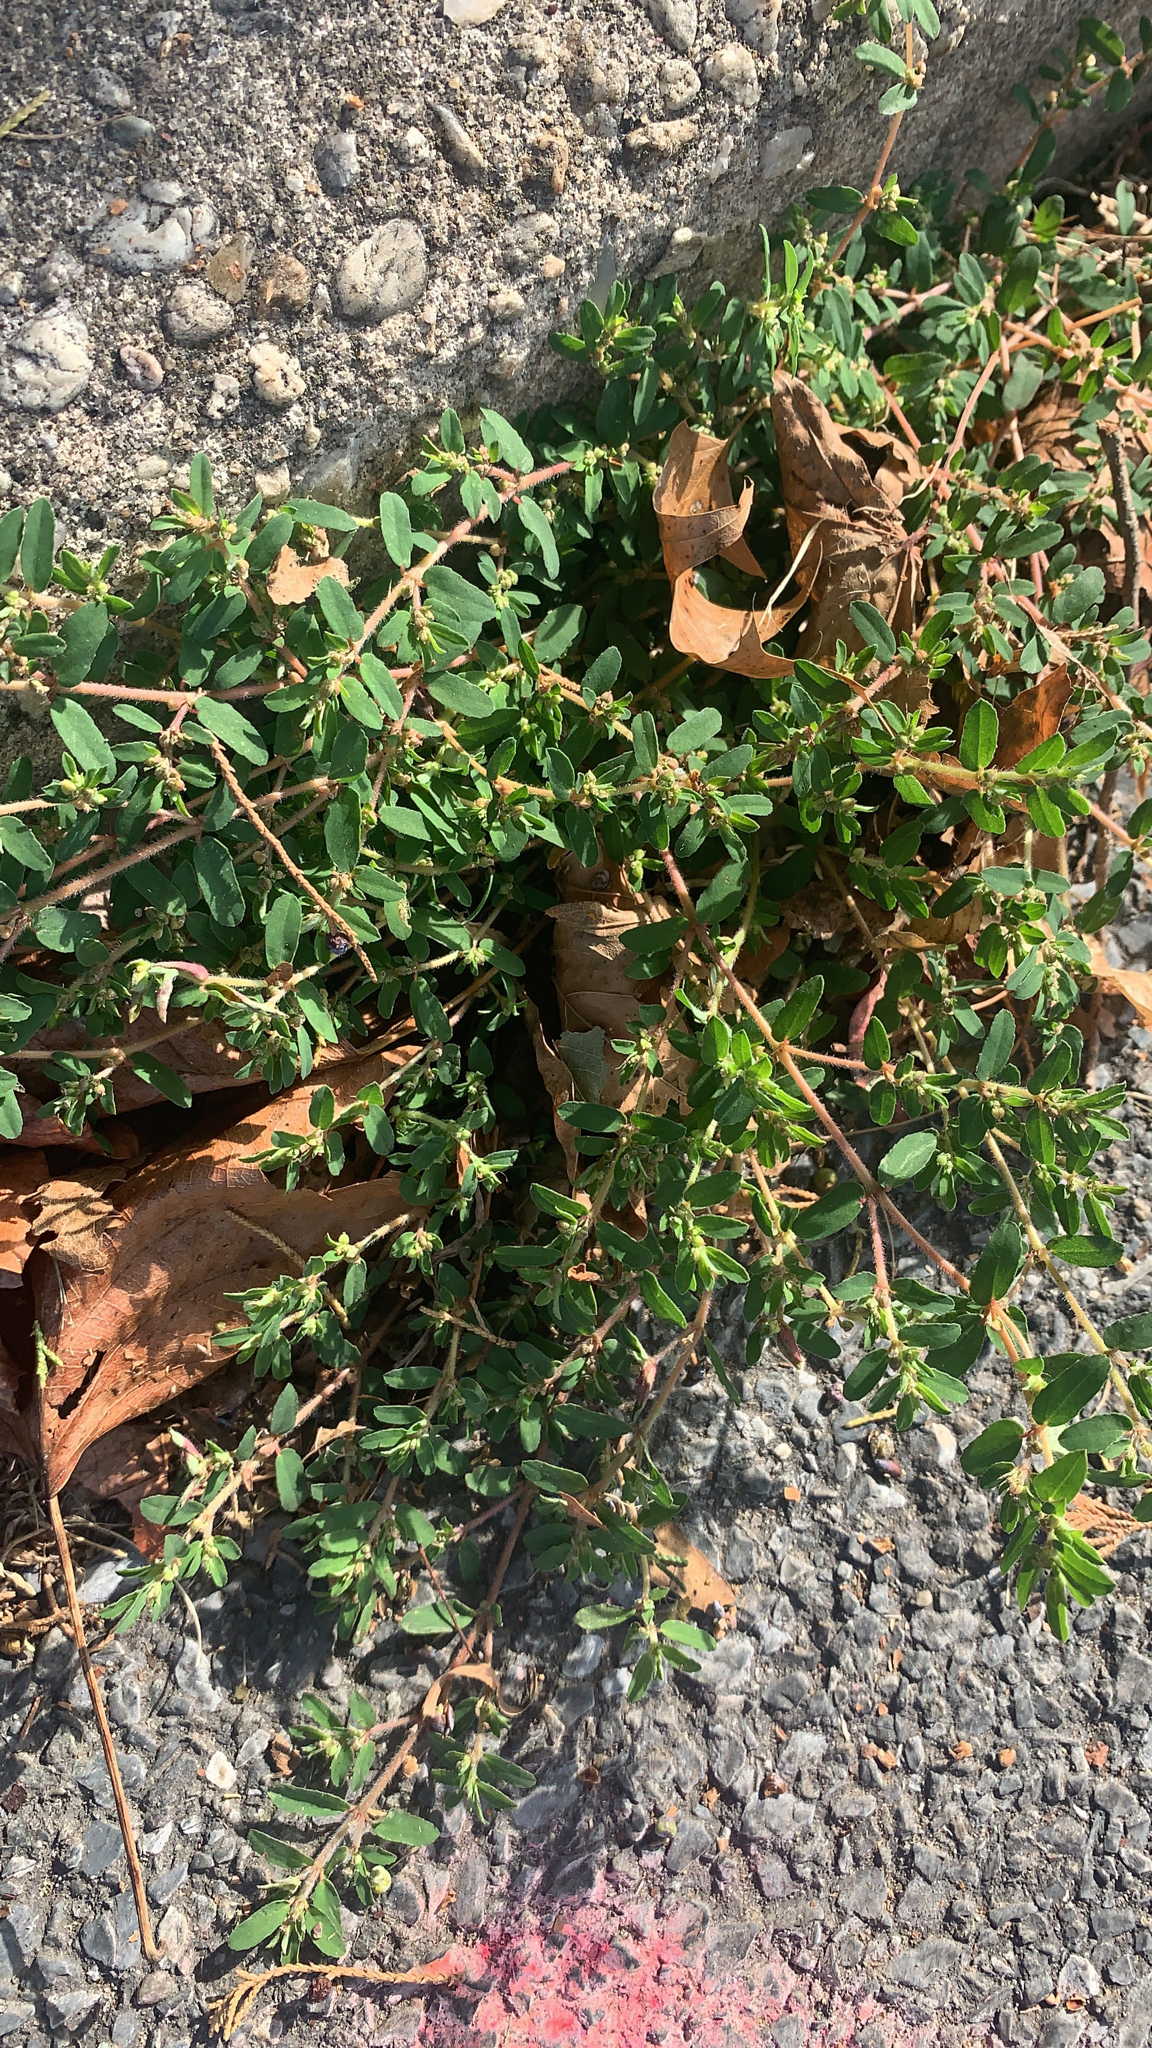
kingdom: Plantae
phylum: Tracheophyta
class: Magnoliopsida
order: Malpighiales
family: Euphorbiaceae
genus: Euphorbia
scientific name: Euphorbia maculata
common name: Spotted spurge
